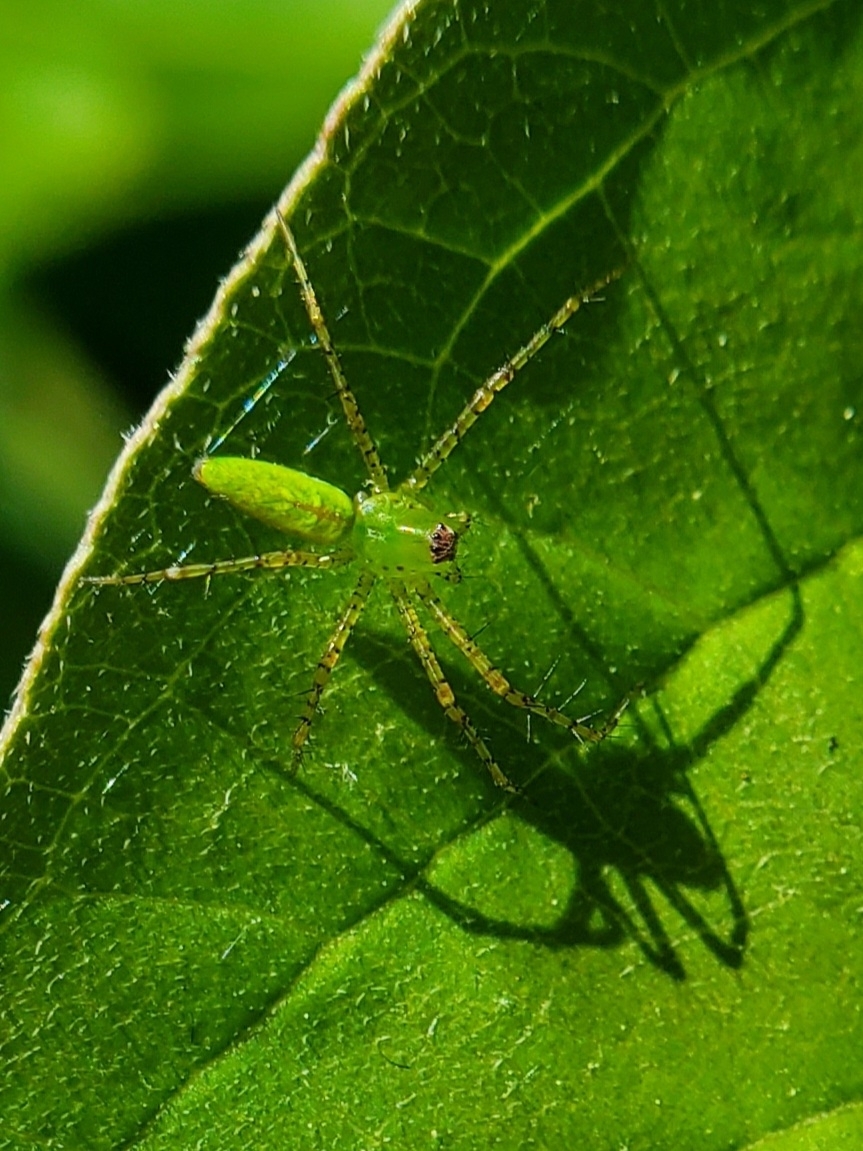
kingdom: Animalia
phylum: Arthropoda
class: Arachnida
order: Araneae
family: Oxyopidae
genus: Peucetia
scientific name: Peucetia viridans
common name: Lynx spiders
